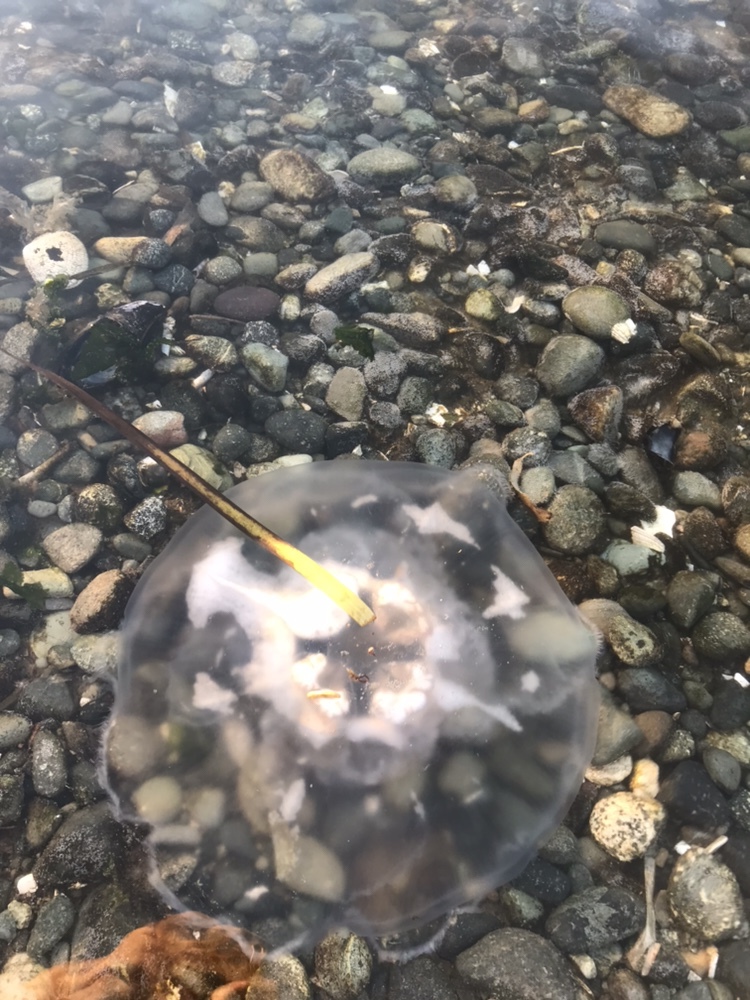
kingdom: Animalia
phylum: Cnidaria
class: Scyphozoa
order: Semaeostomeae
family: Ulmaridae
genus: Aurelia
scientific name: Aurelia labiata
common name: Pacific moon jelly
